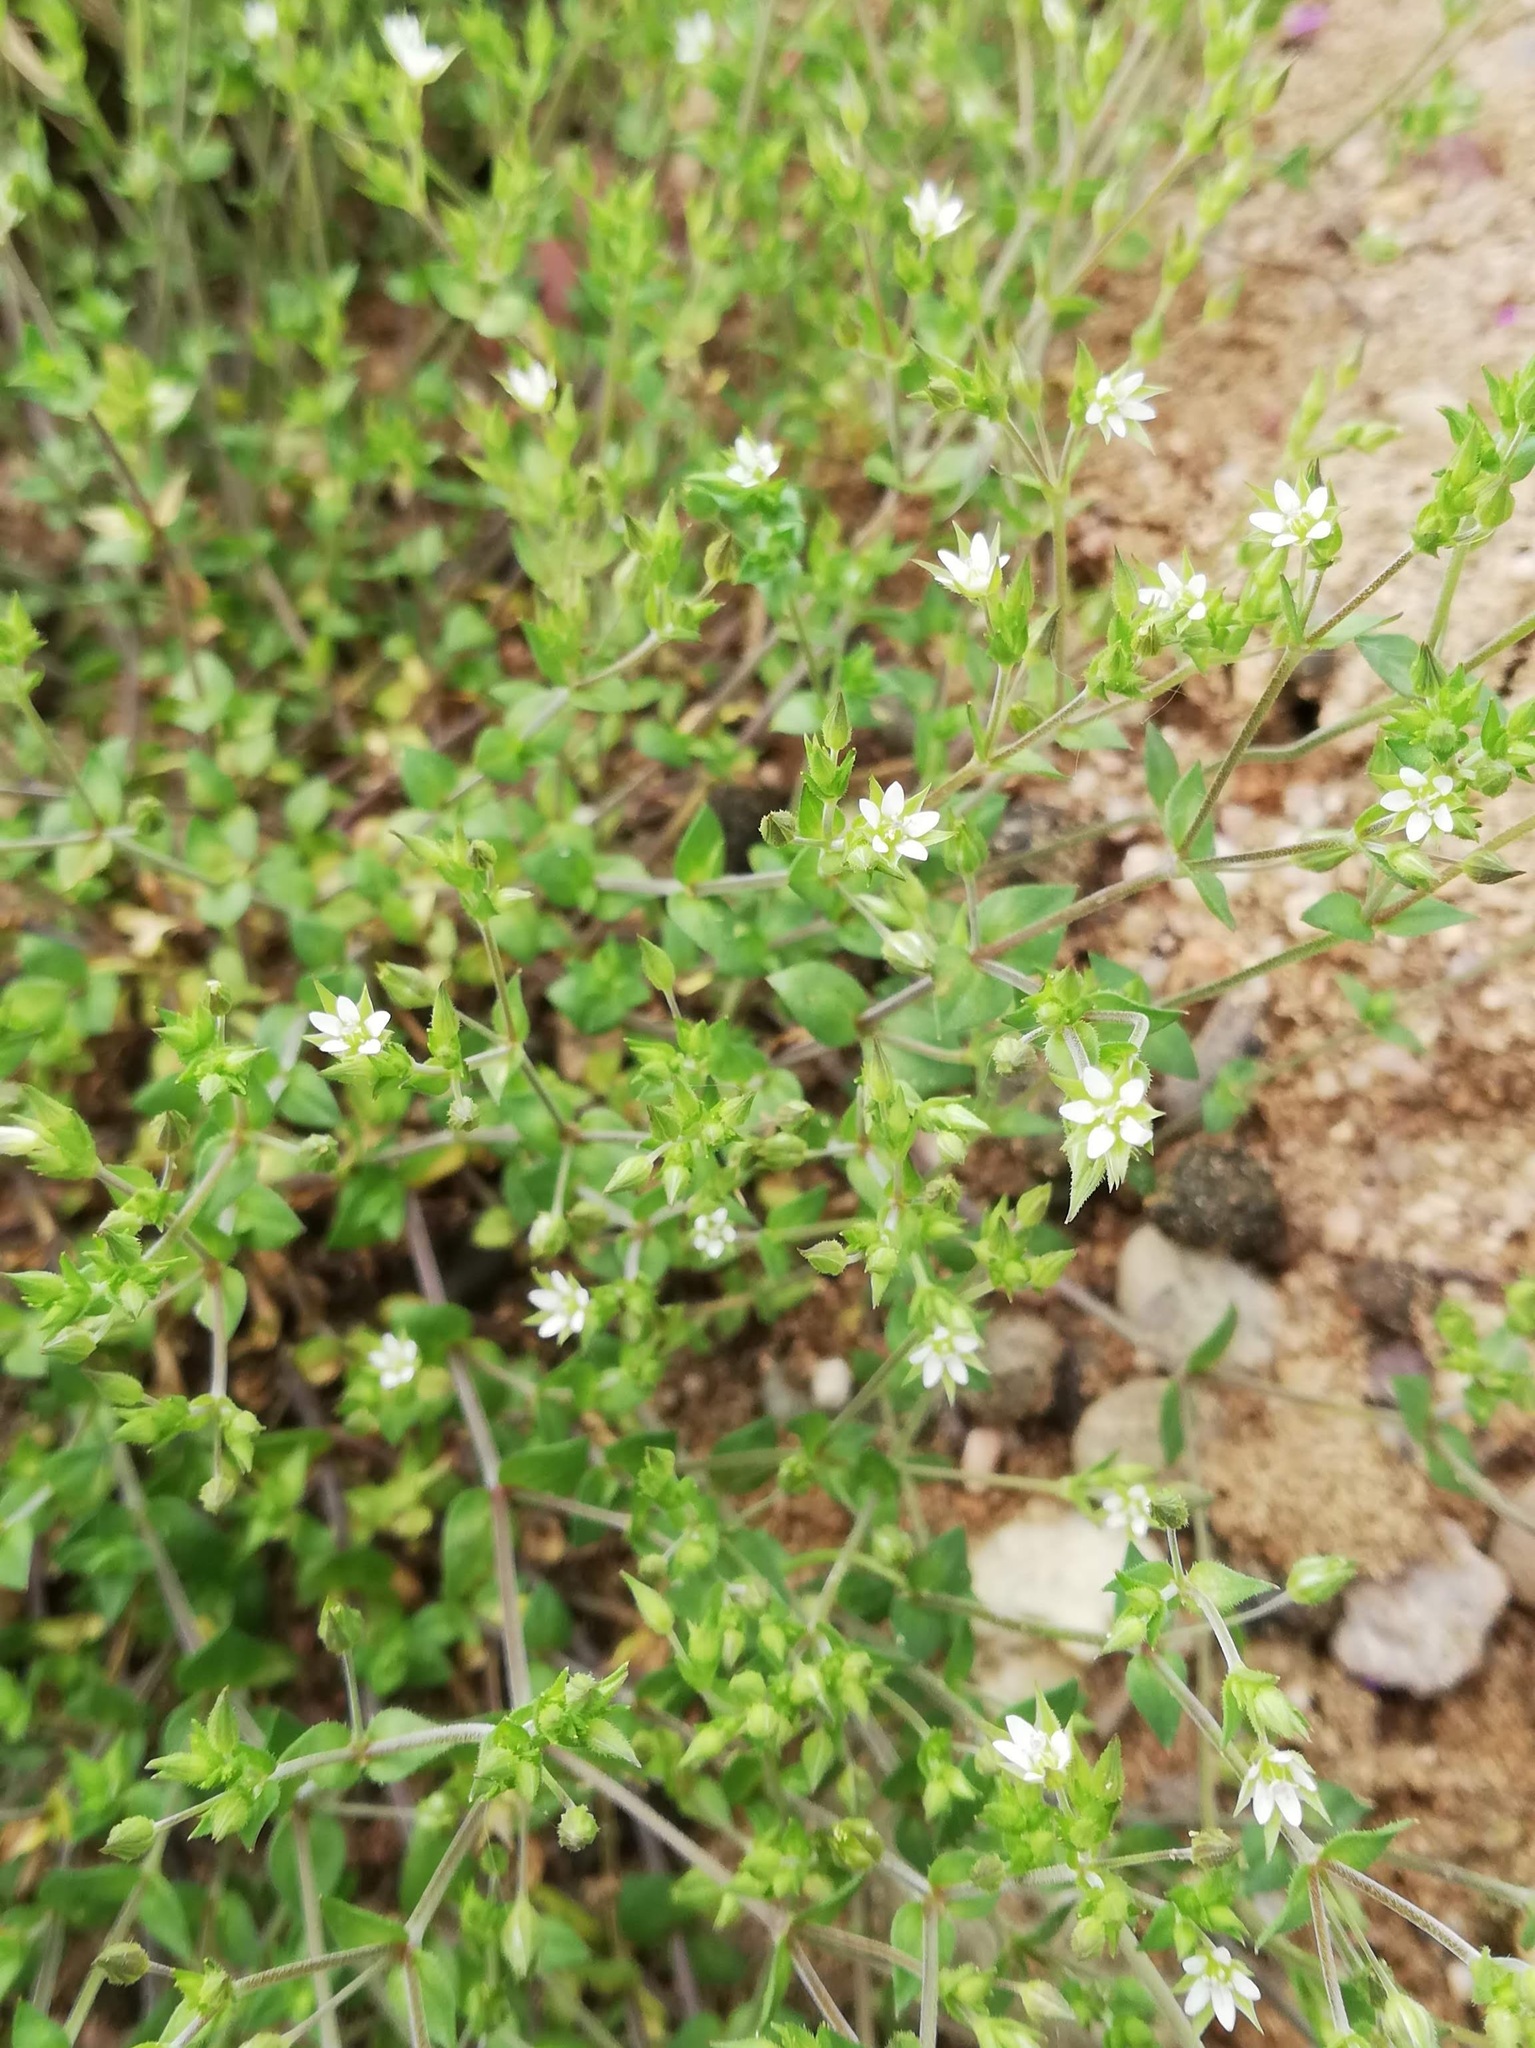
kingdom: Plantae
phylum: Tracheophyta
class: Magnoliopsida
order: Caryophyllales
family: Caryophyllaceae
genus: Arenaria
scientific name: Arenaria serpyllifolia
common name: Thyme-leaved sandwort
